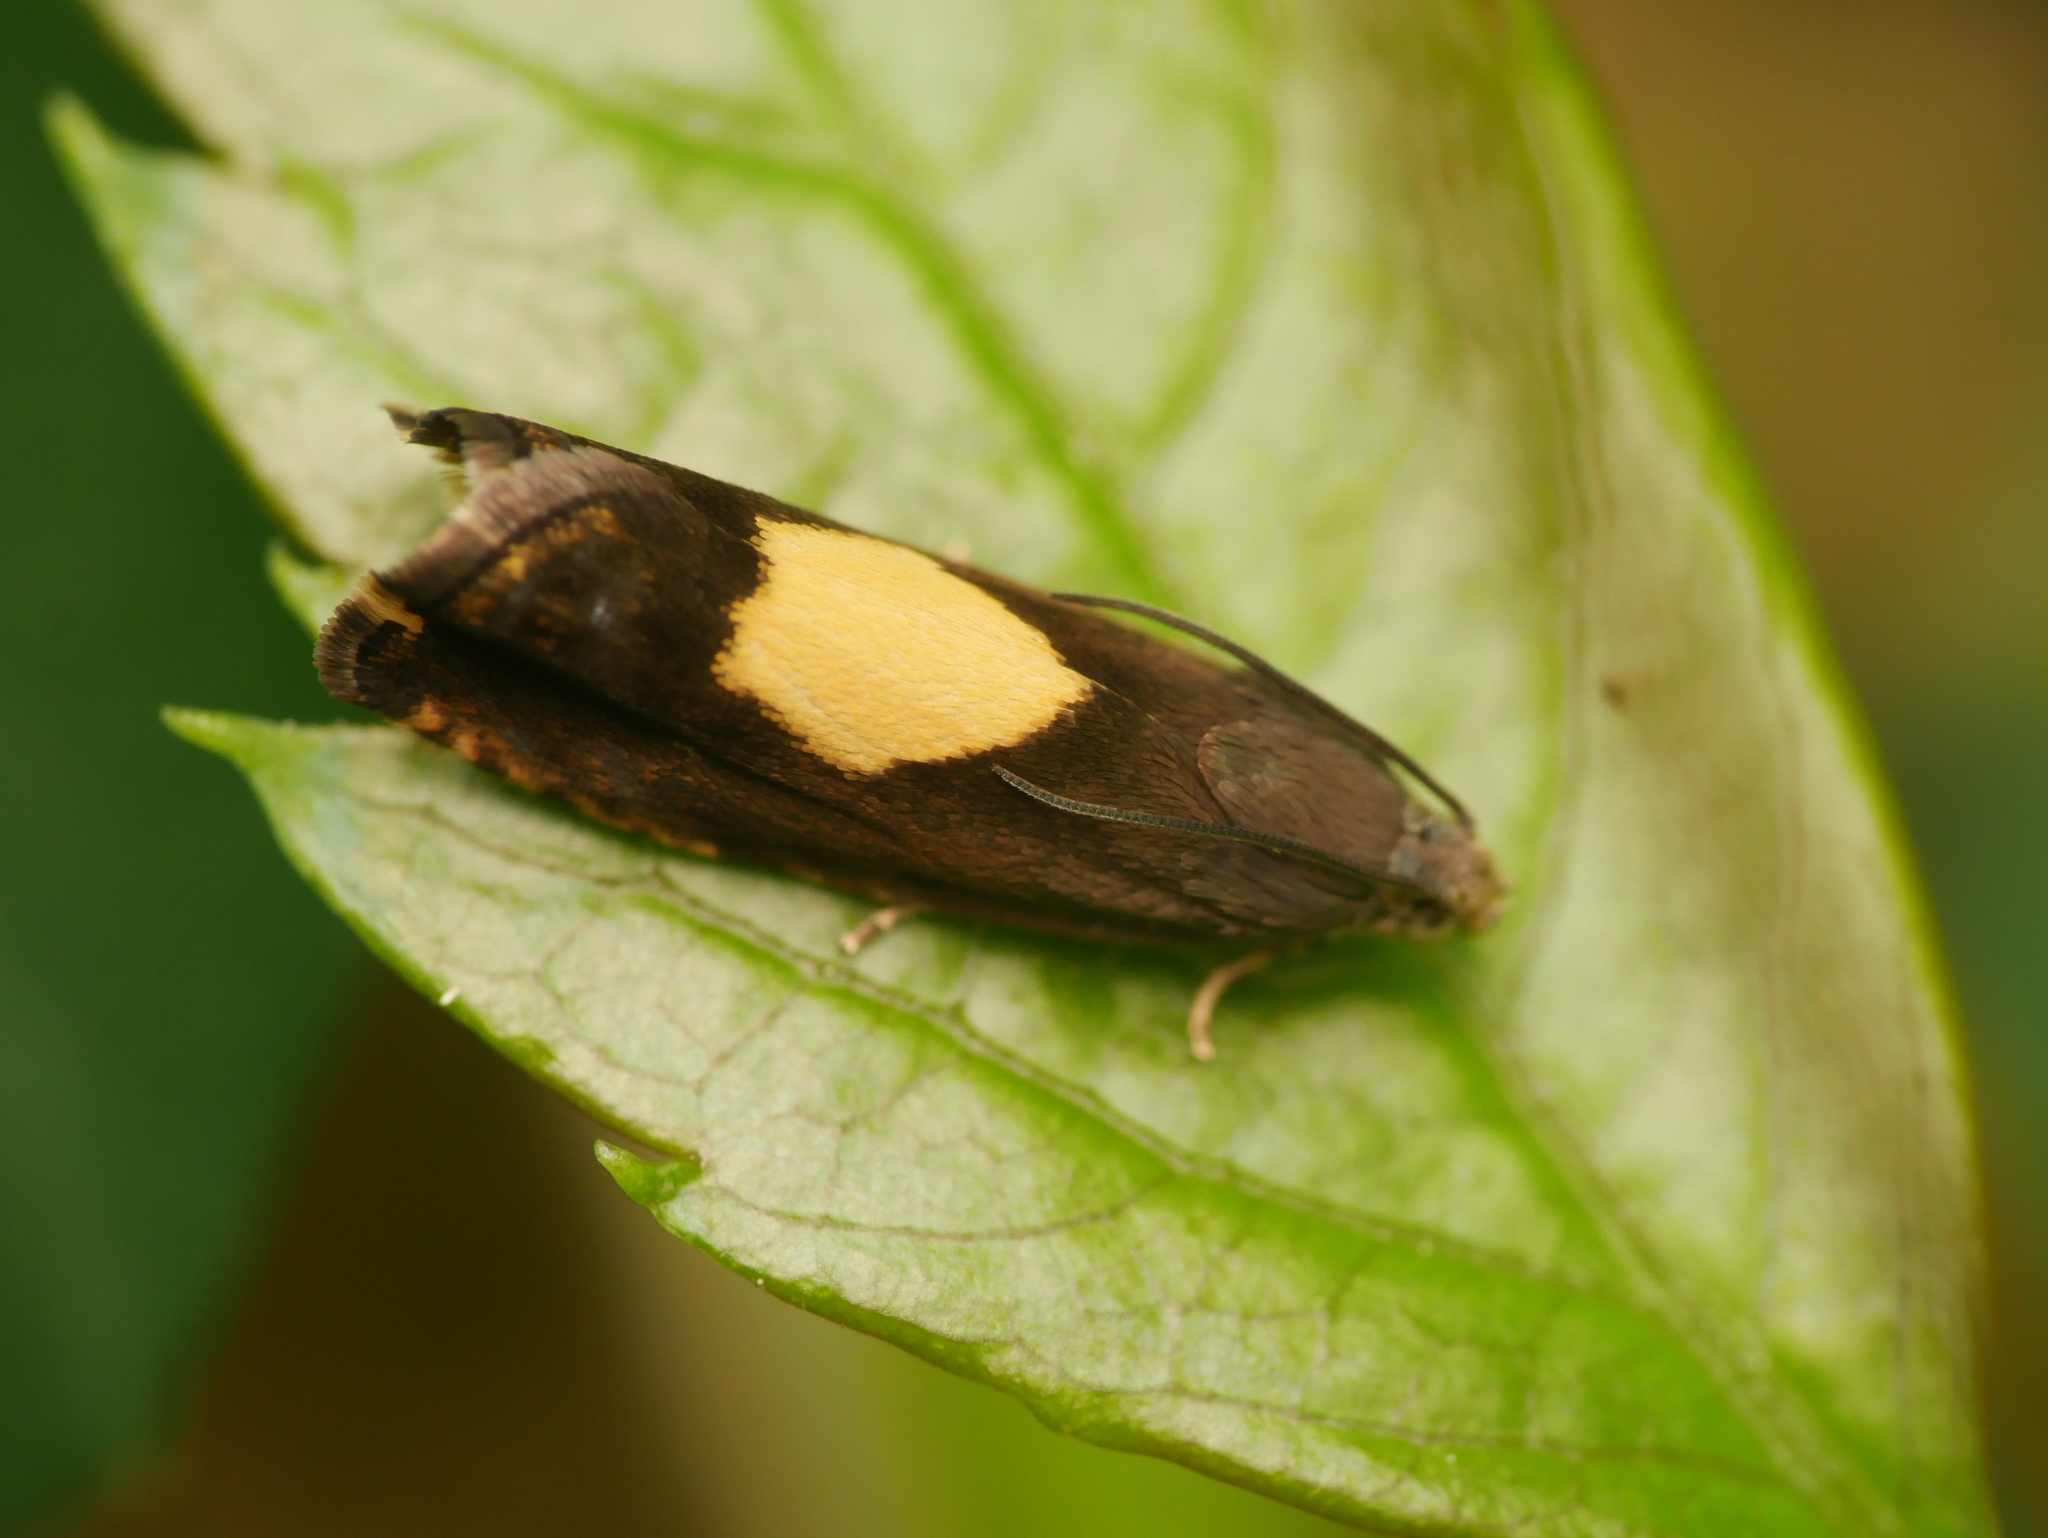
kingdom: Animalia
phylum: Arthropoda
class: Insecta
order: Lepidoptera
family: Tortricidae
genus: Pammene
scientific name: Pammene regiana
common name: Regal piercer
